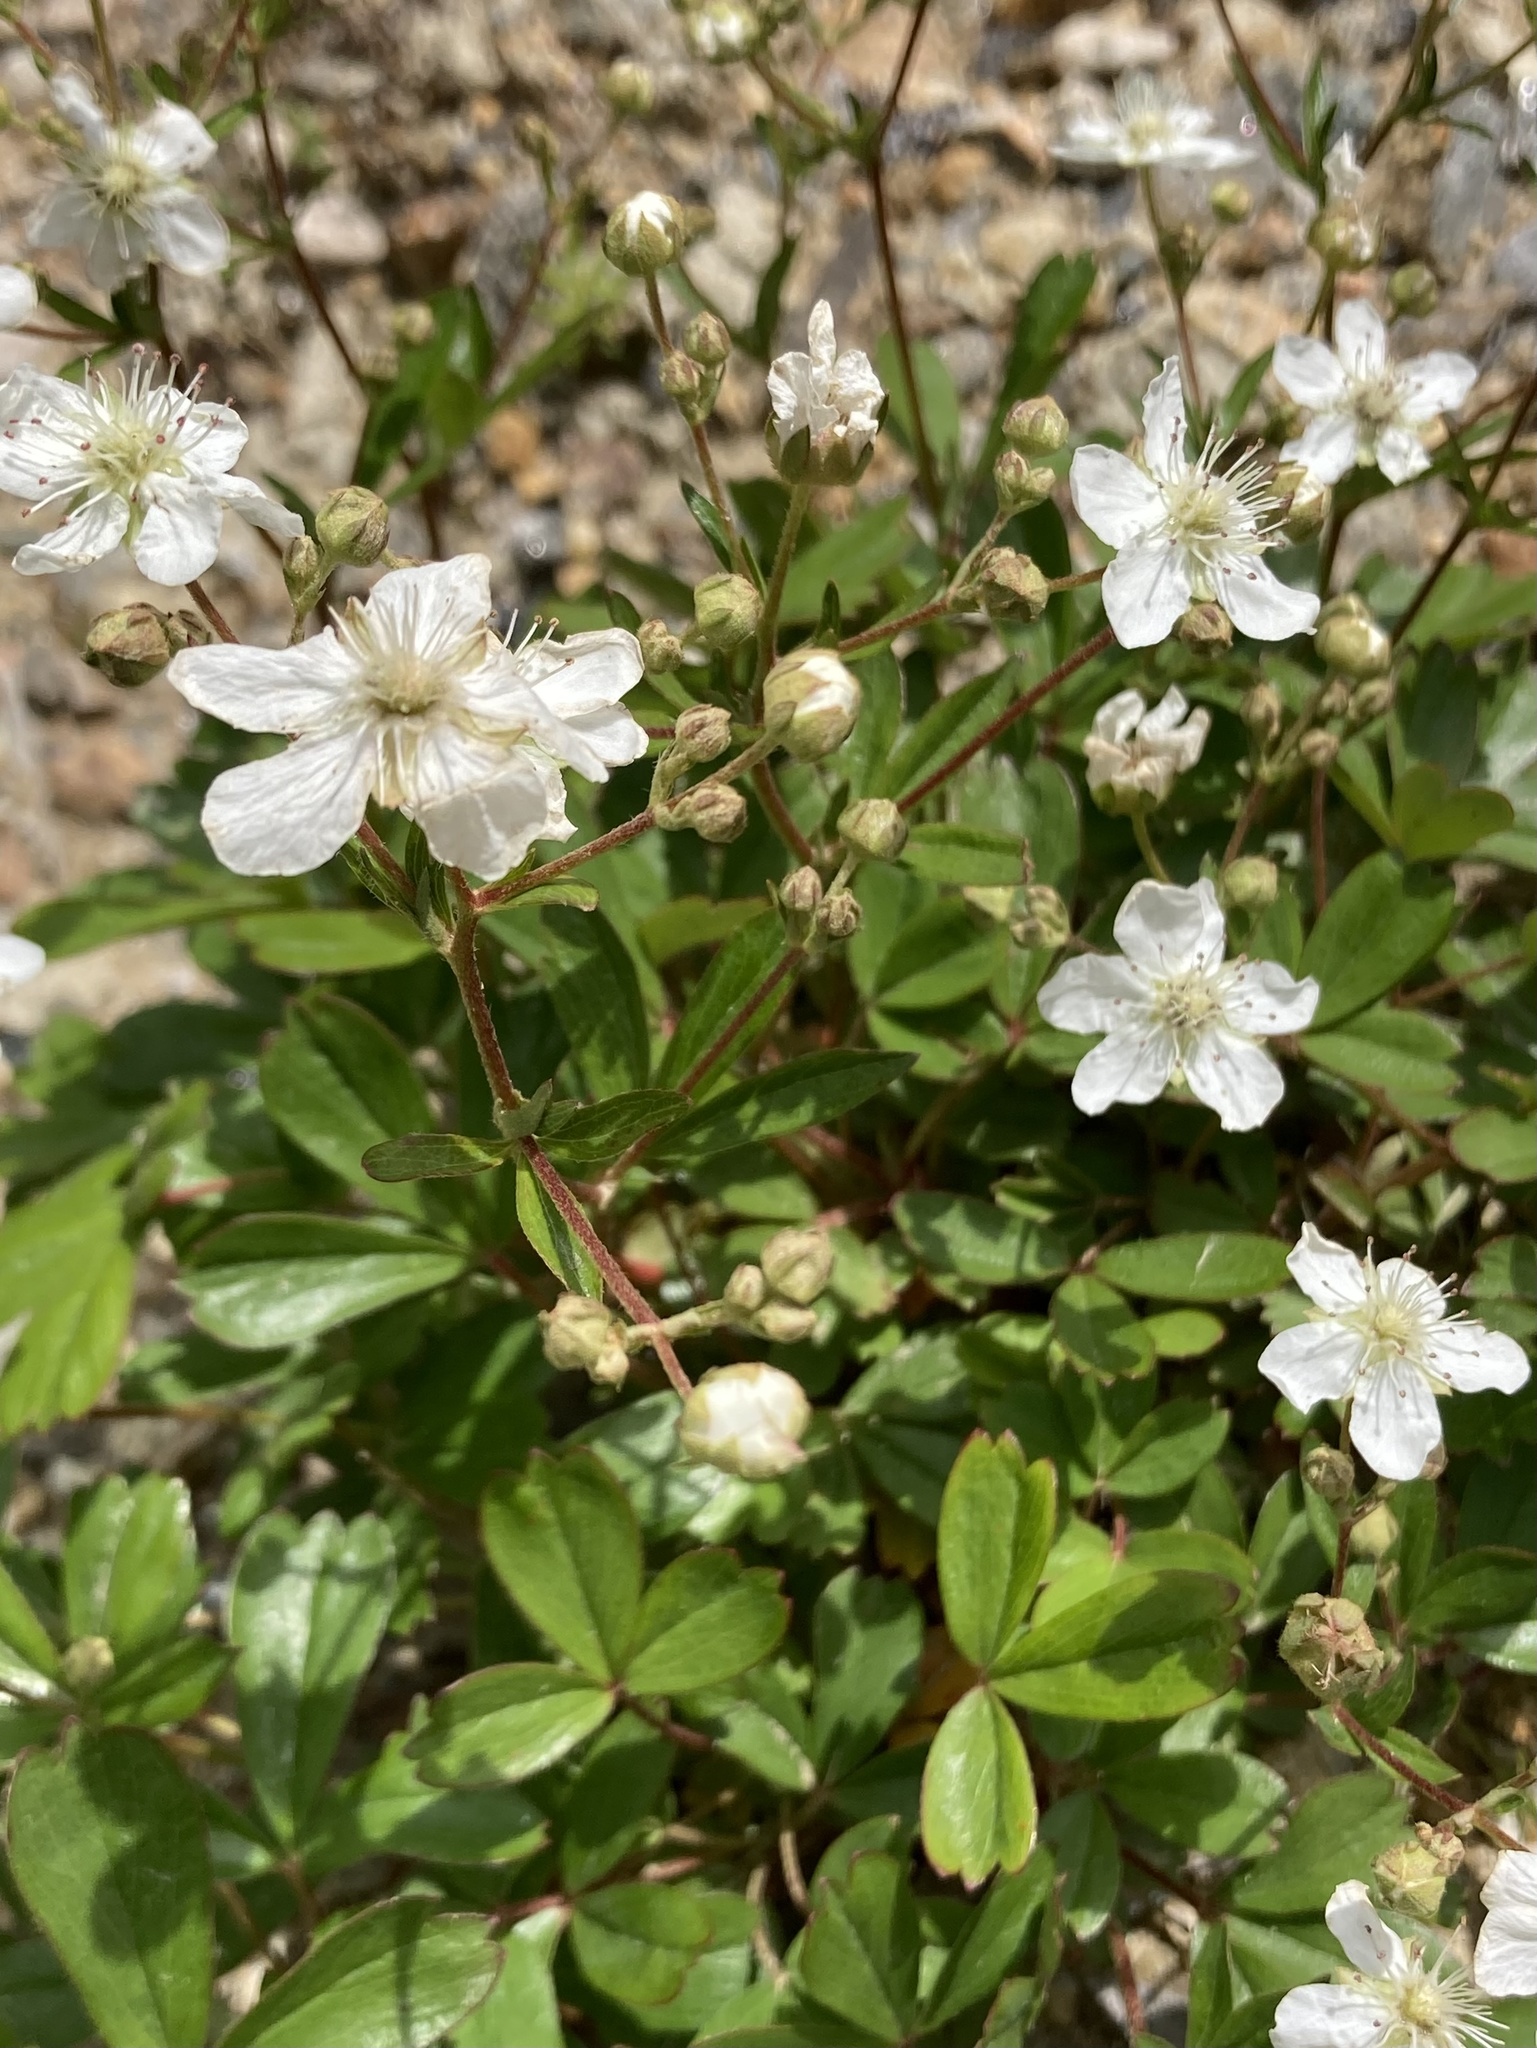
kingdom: Plantae
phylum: Tracheophyta
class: Magnoliopsida
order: Rosales
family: Rosaceae
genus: Sibbaldia
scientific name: Sibbaldia tridentata
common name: Three-toothed cinquefoil
